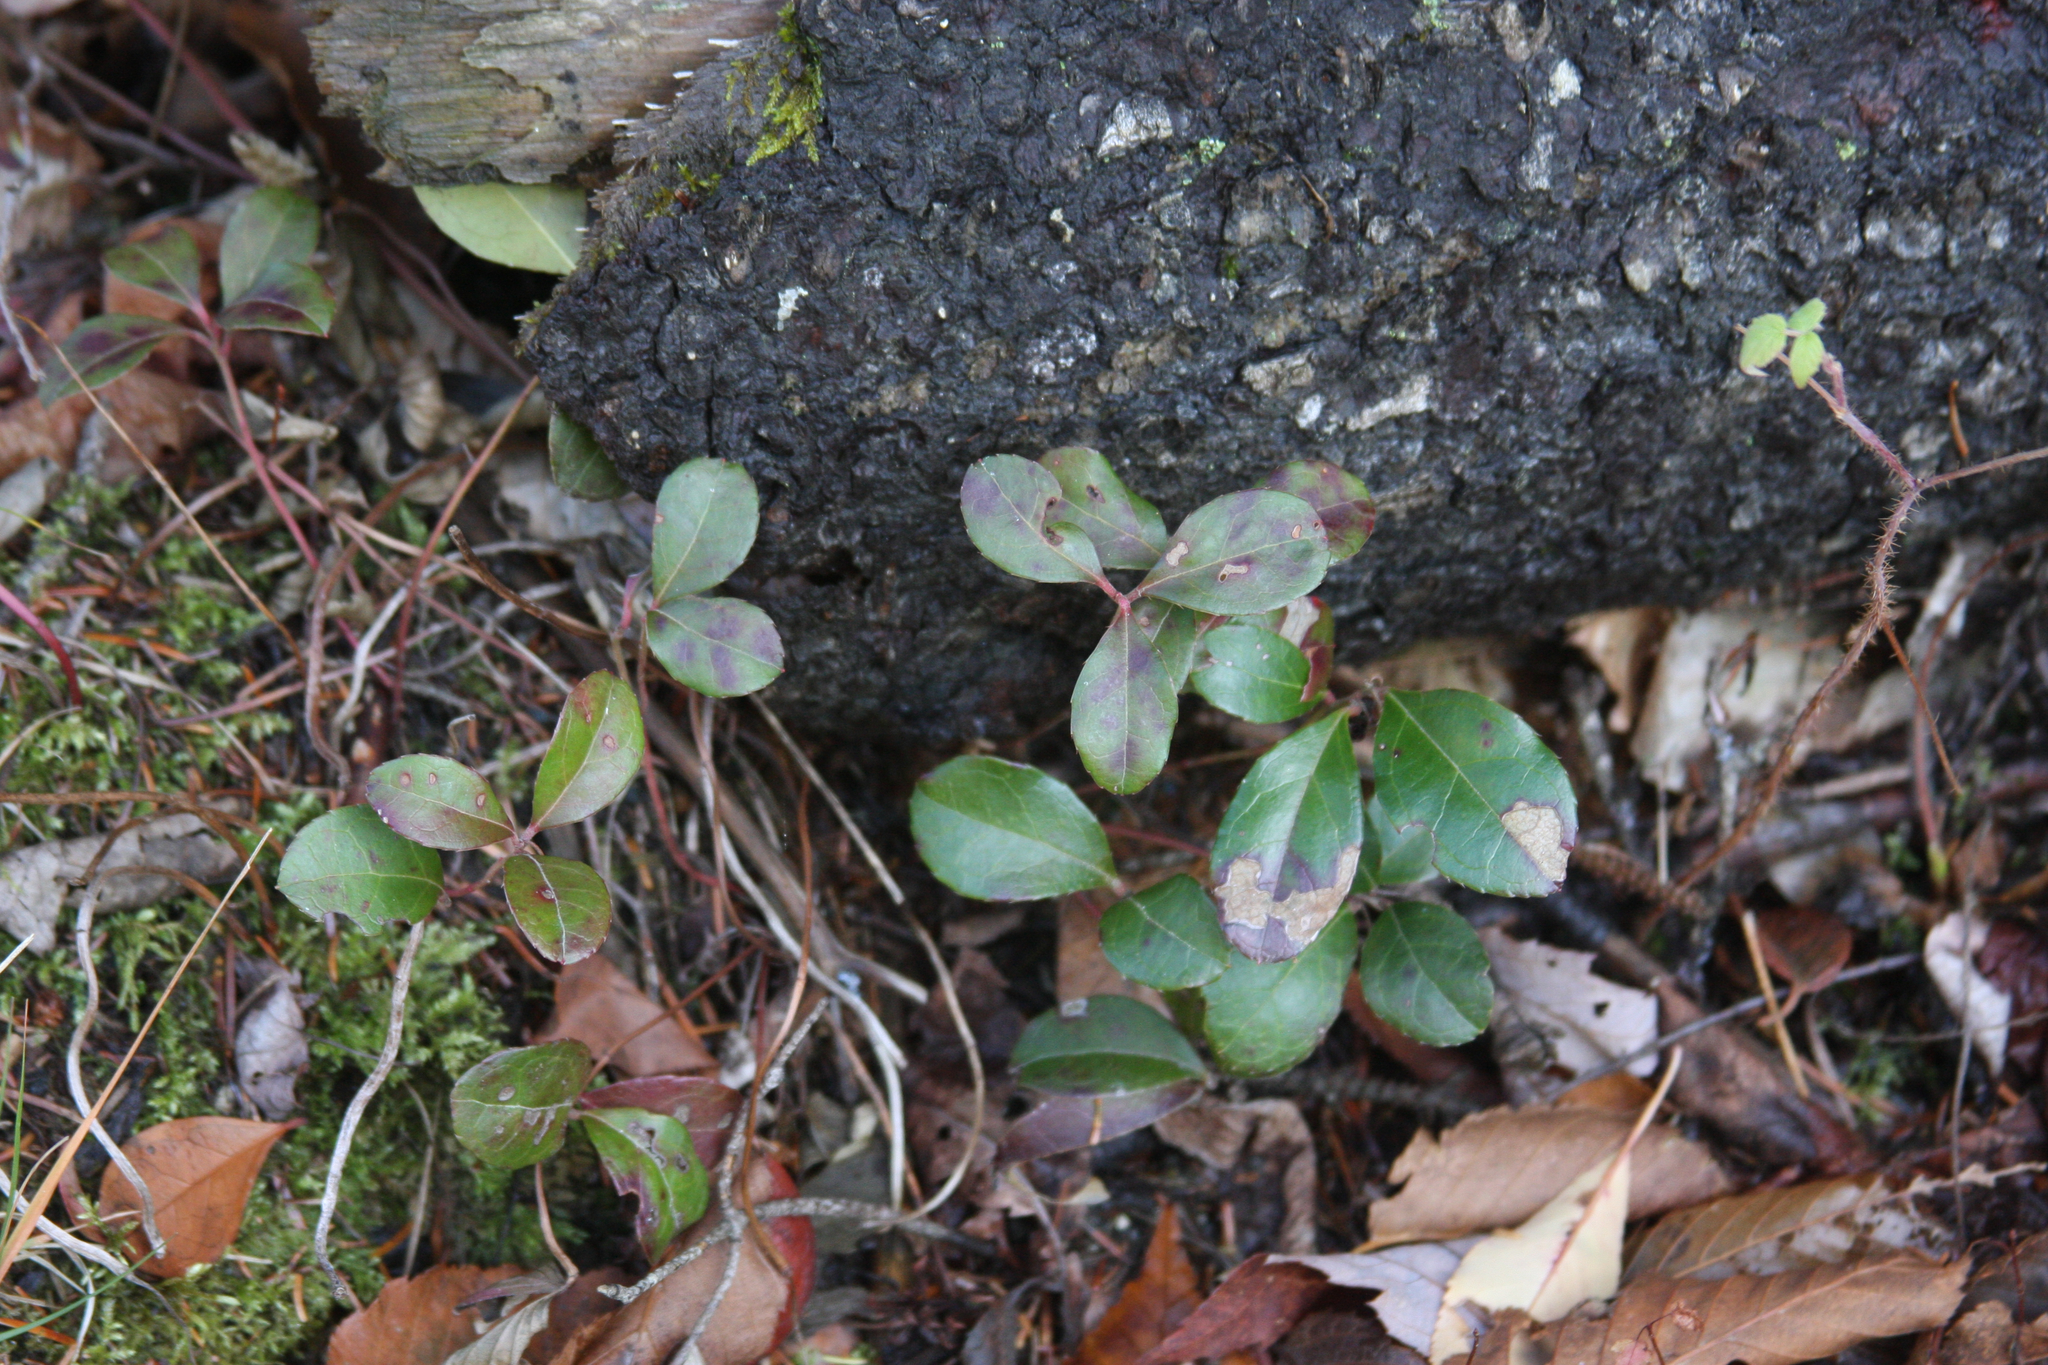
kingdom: Plantae
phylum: Tracheophyta
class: Magnoliopsida
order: Ericales
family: Ericaceae
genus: Gaultheria
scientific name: Gaultheria procumbens
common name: Checkerberry
